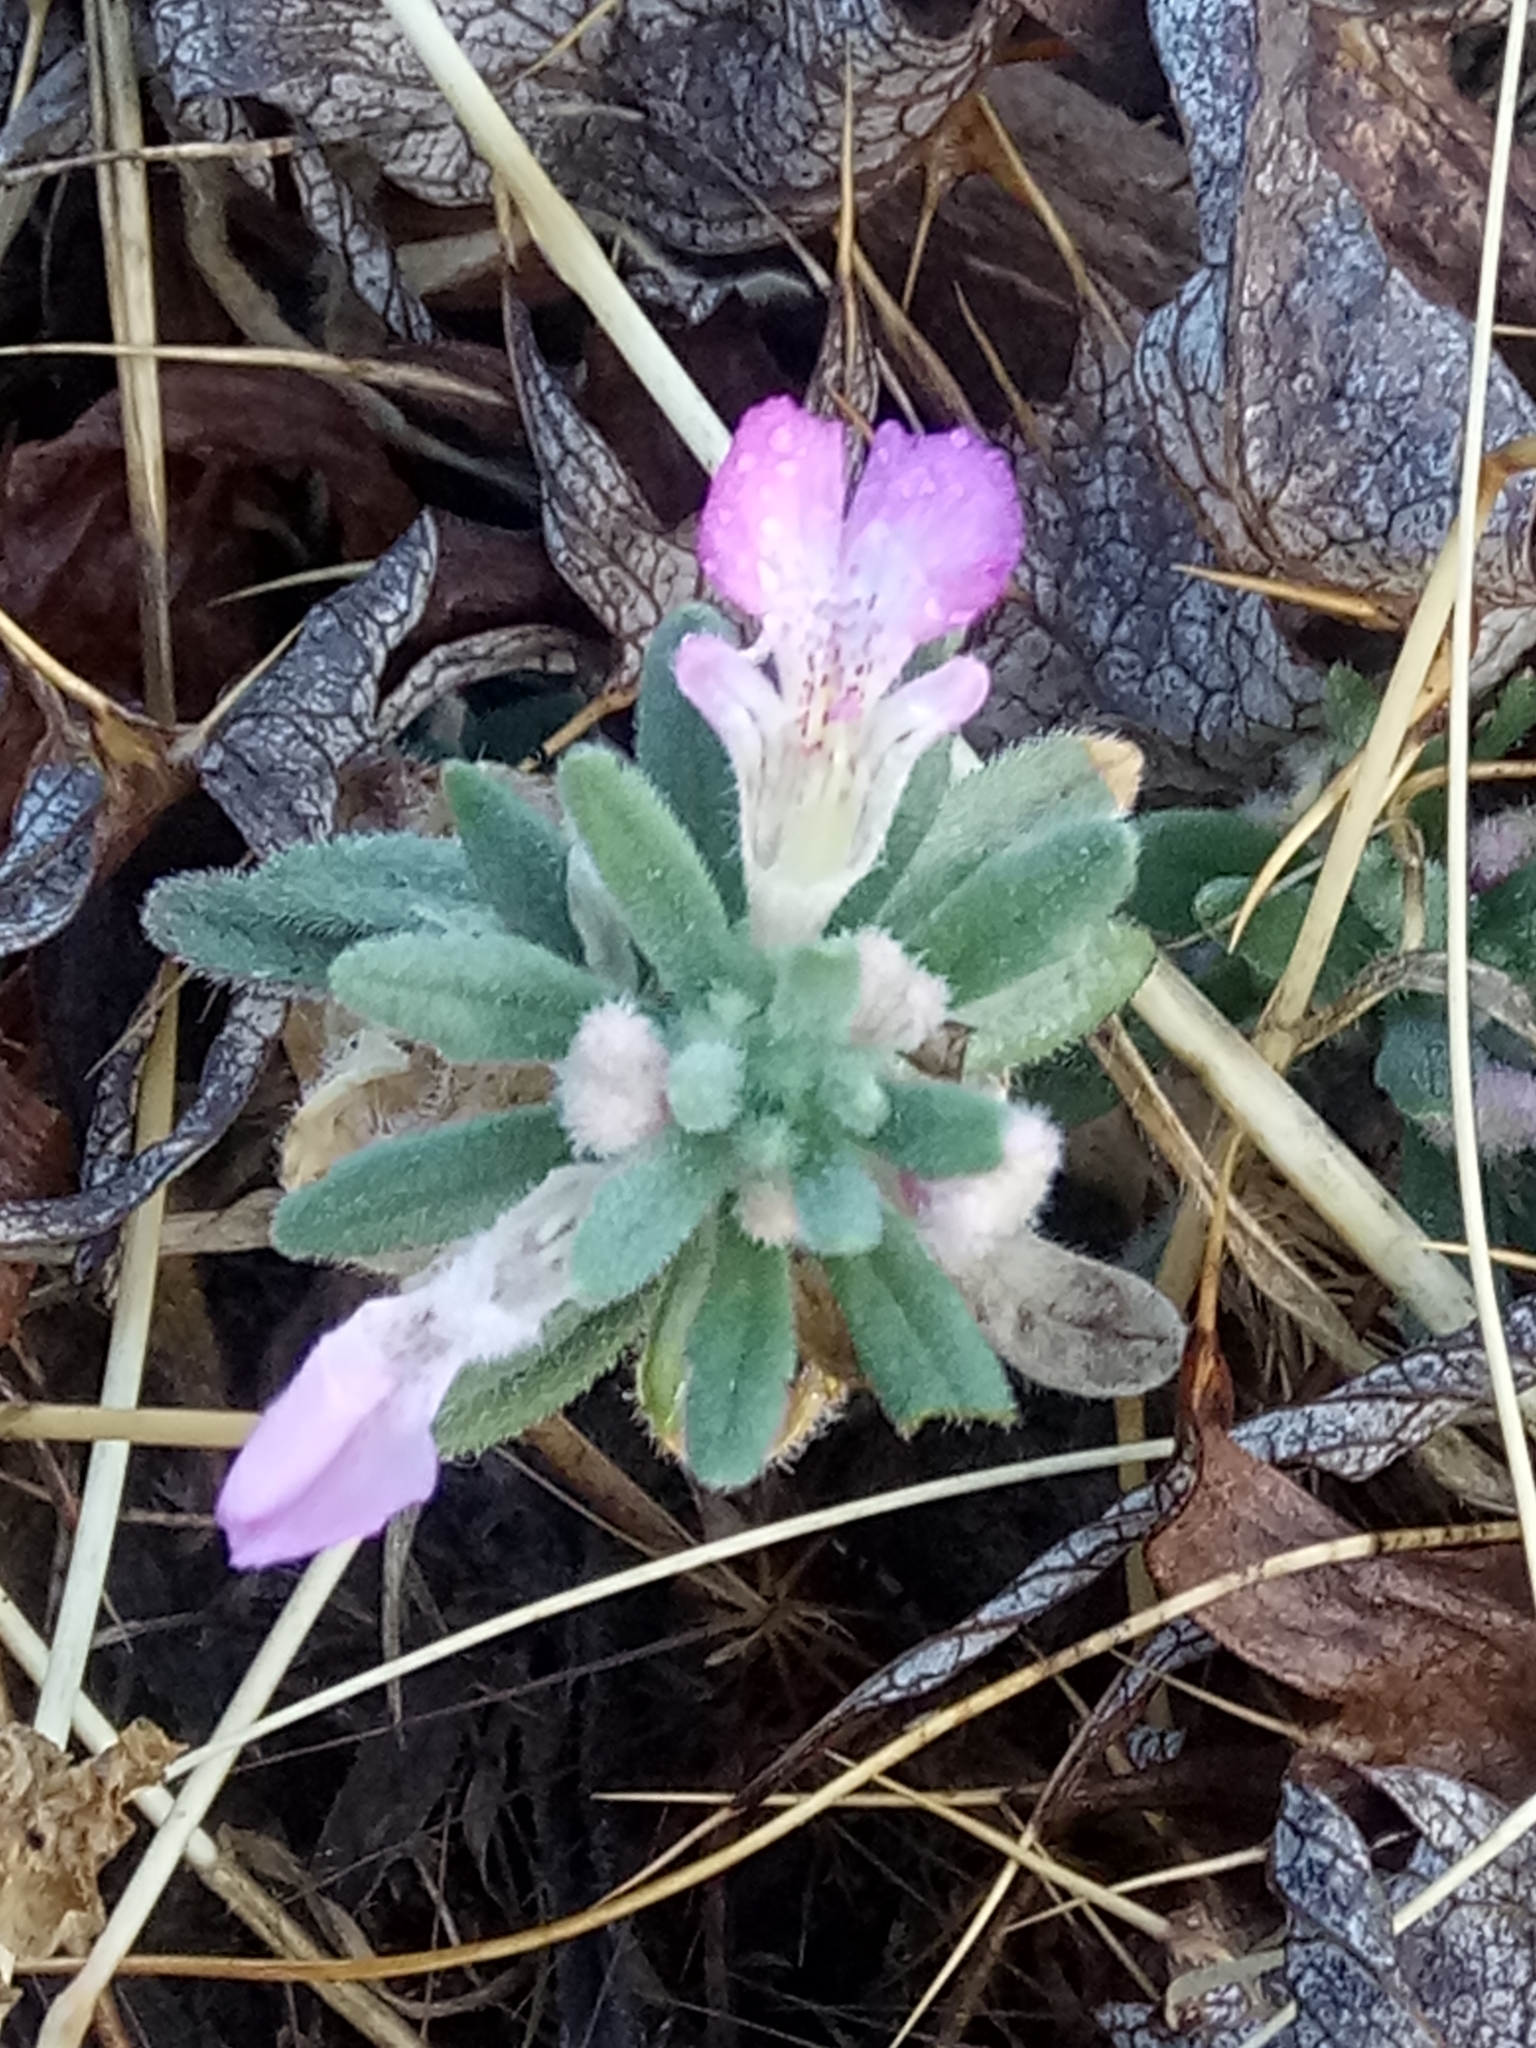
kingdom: Plantae
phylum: Tracheophyta
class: Magnoliopsida
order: Lamiales
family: Lamiaceae
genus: Ajuga
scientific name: Ajuga iva
